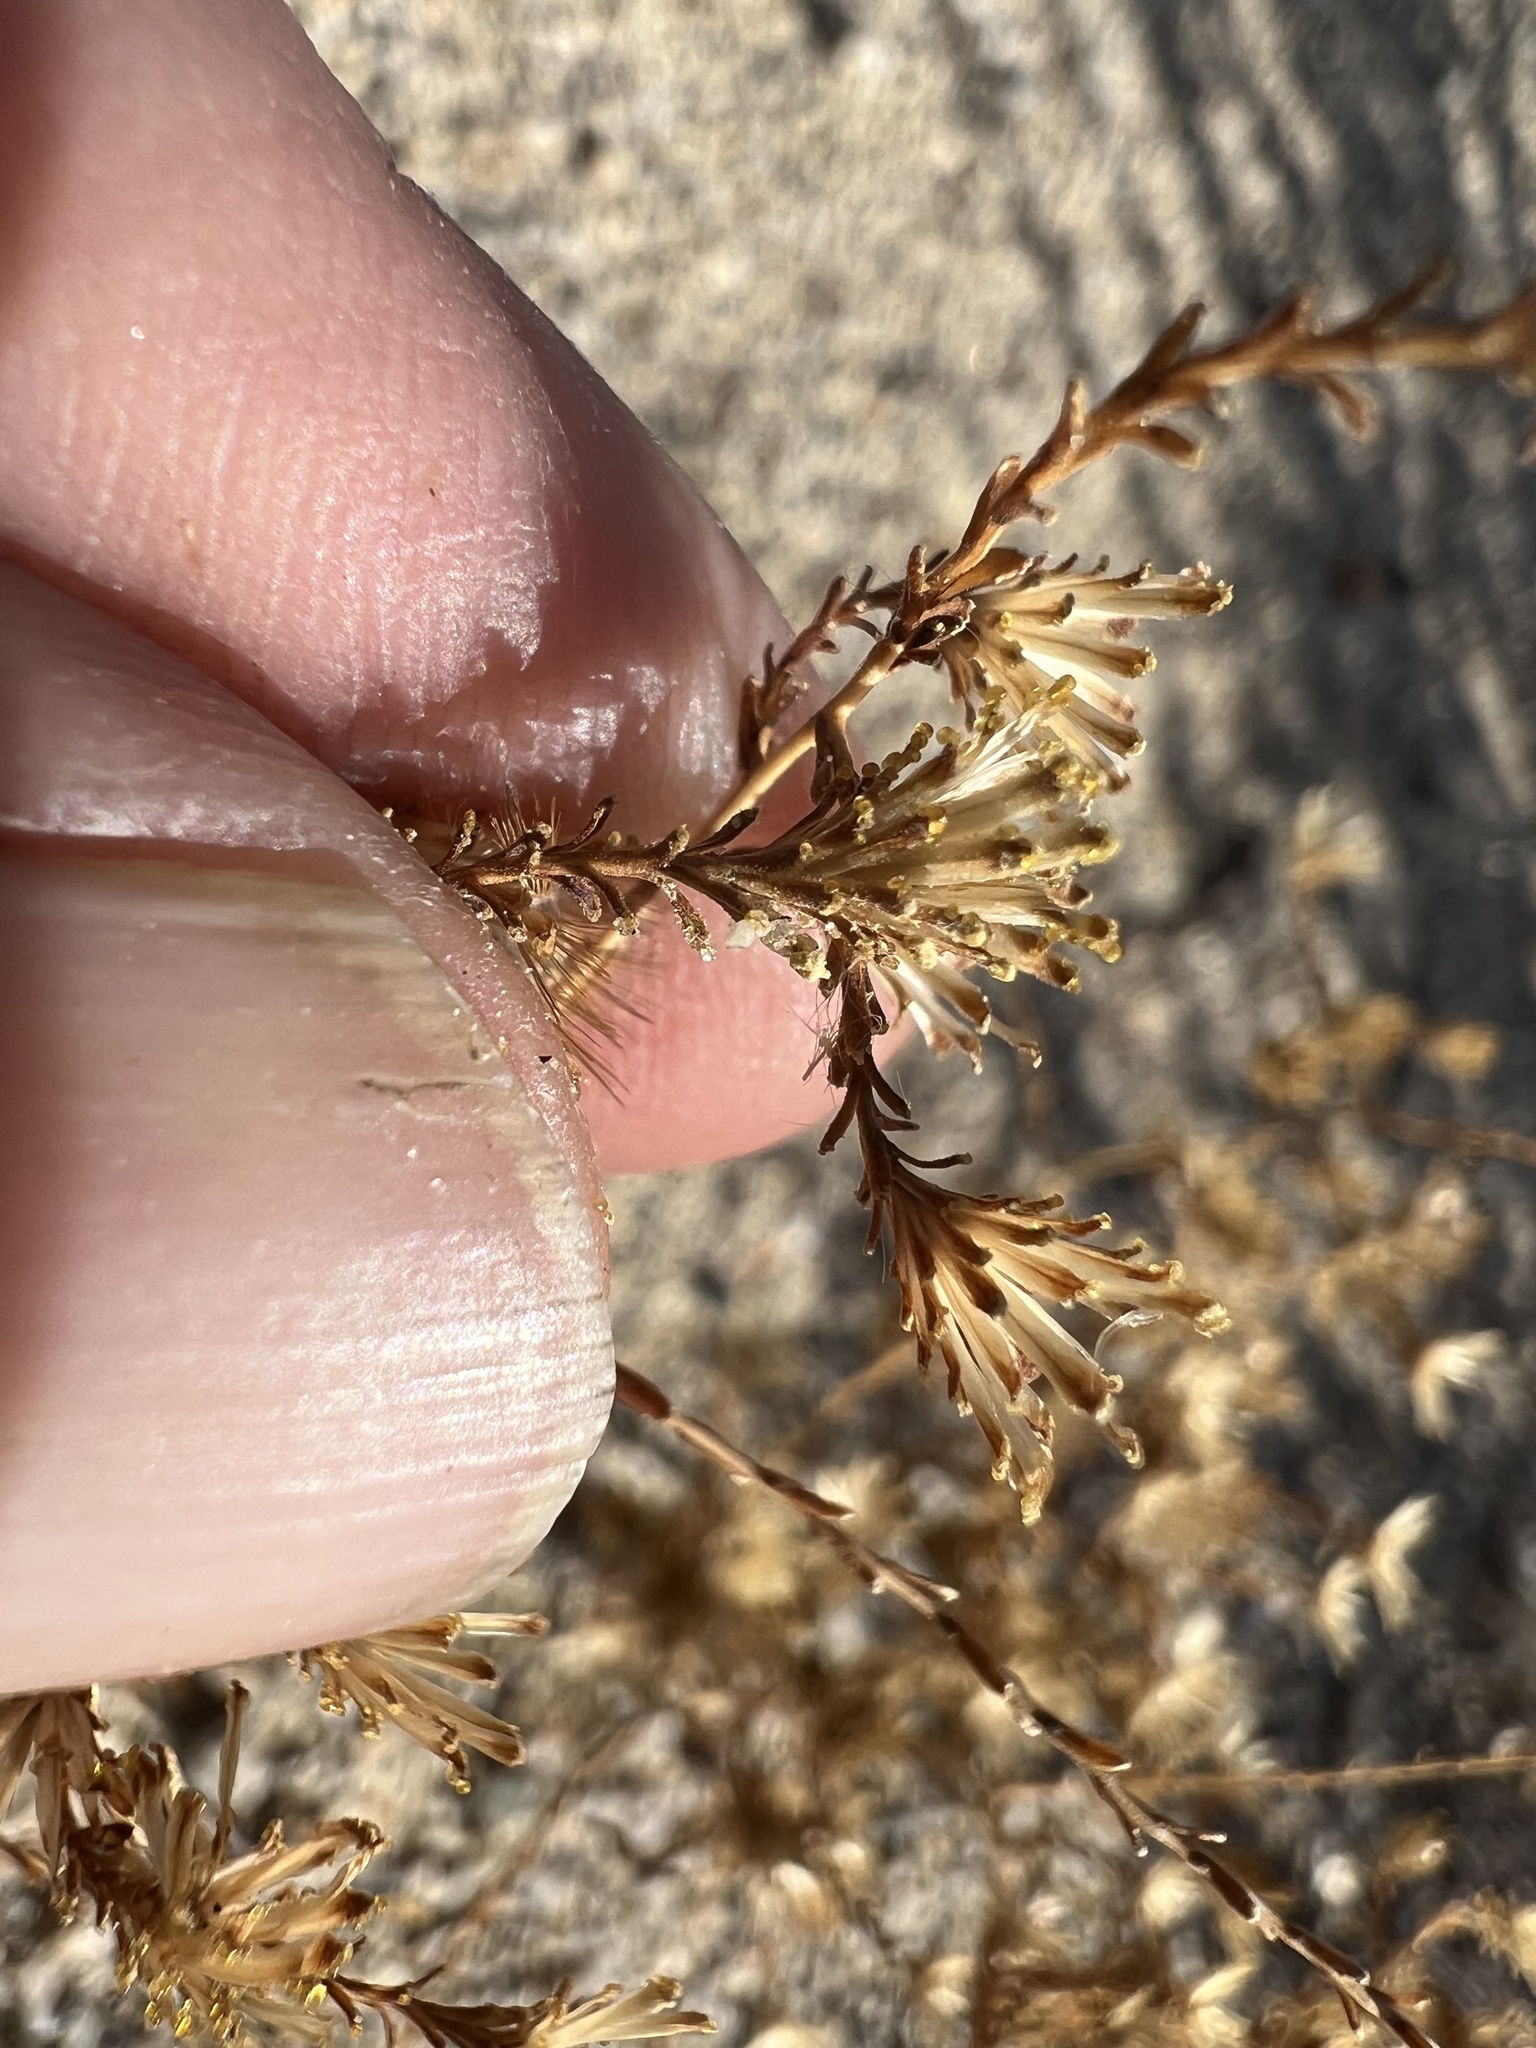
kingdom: Plantae
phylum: Tracheophyta
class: Magnoliopsida
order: Asterales
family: Asteraceae
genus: Lessingia
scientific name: Lessingia glandulifera
